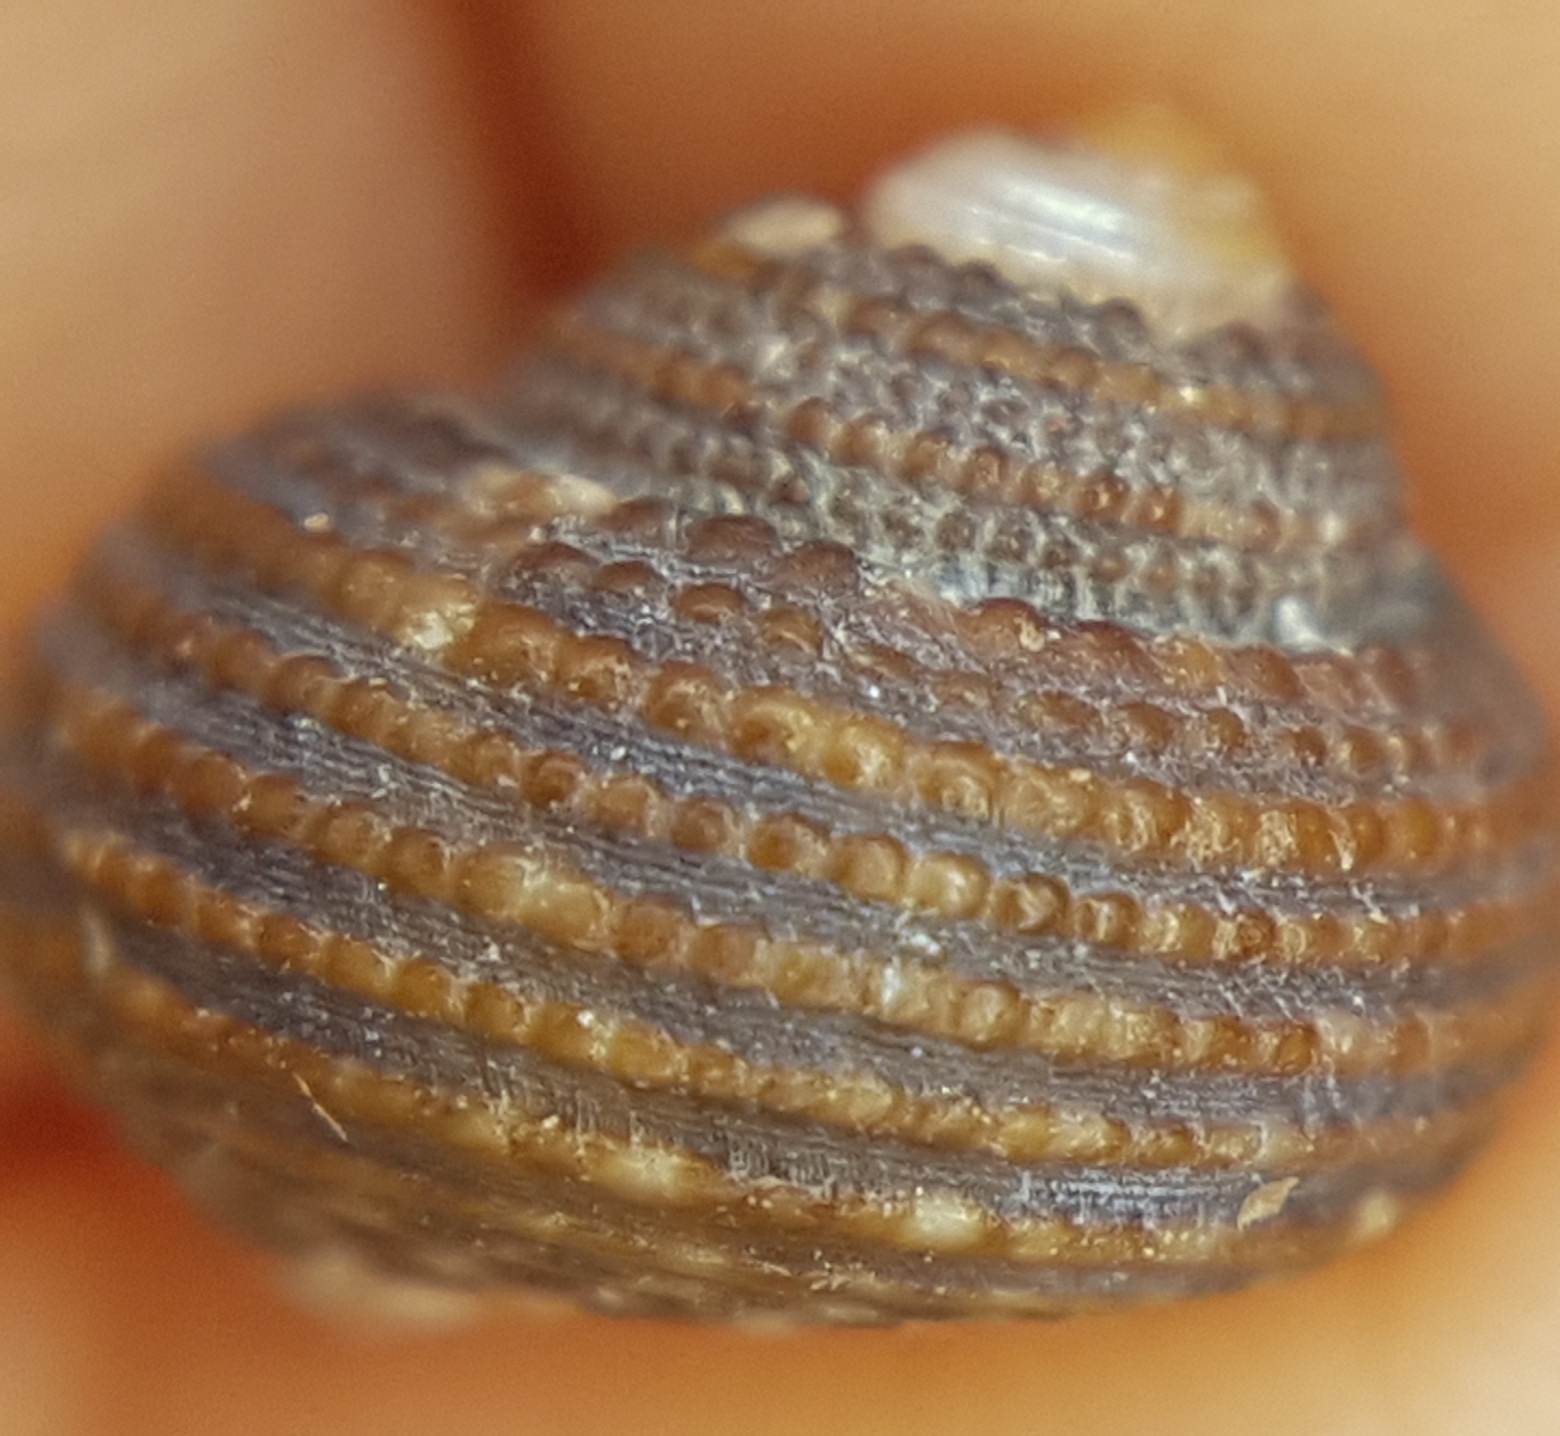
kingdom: Animalia
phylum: Mollusca
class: Gastropoda
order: Trochida
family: Trochidae
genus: Clanculus
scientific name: Clanculus cruciatus
